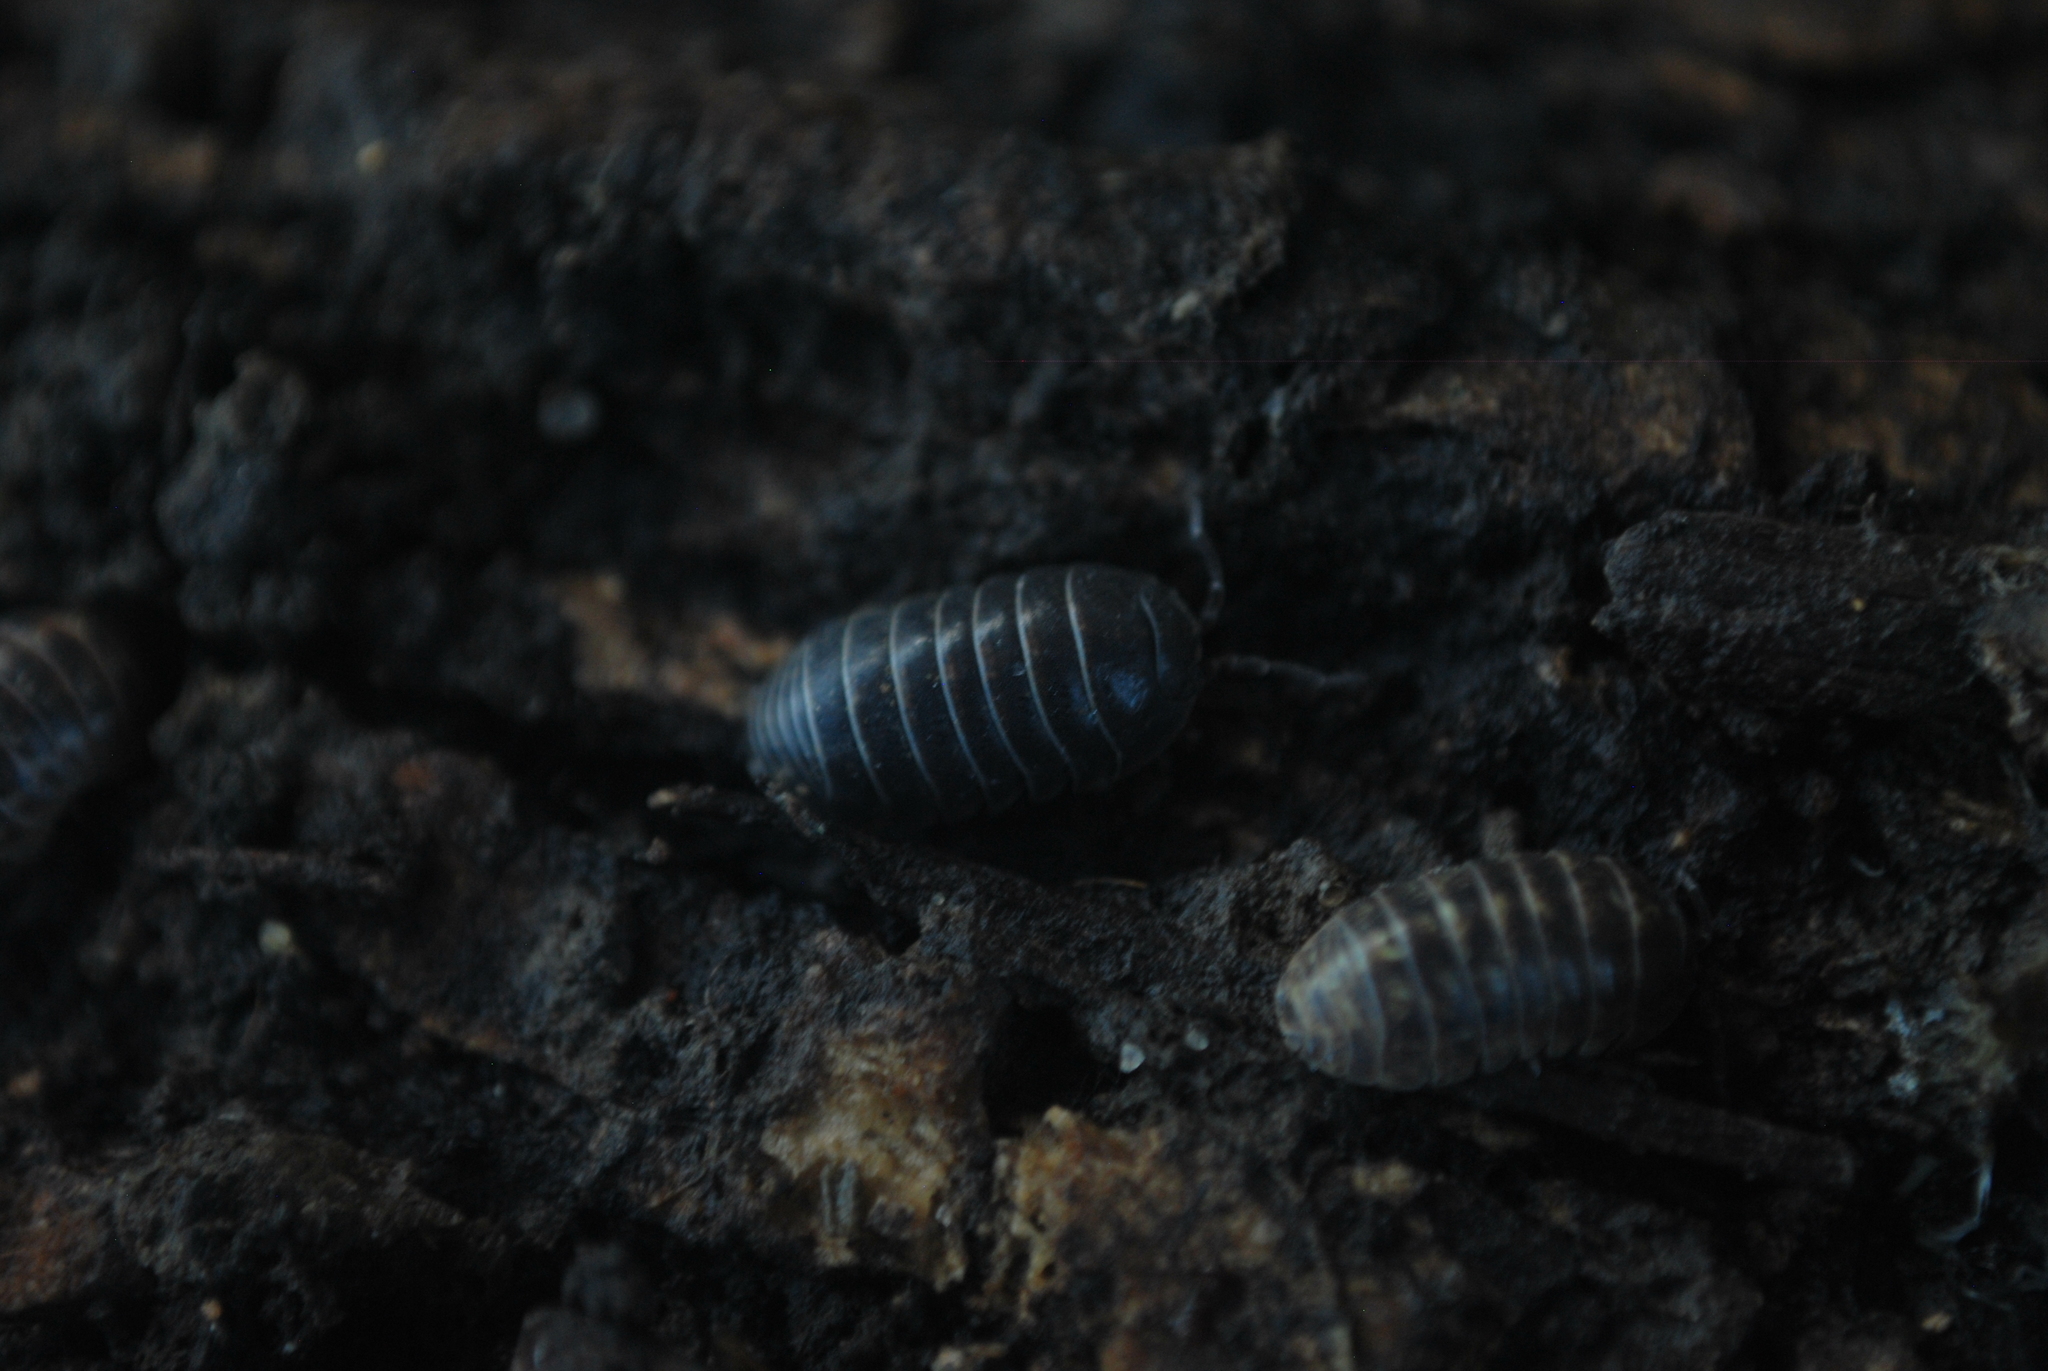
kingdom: Animalia
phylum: Arthropoda
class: Malacostraca
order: Isopoda
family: Armadillidiidae
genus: Armadillidium
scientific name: Armadillidium vulgare
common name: Common pill woodlouse
